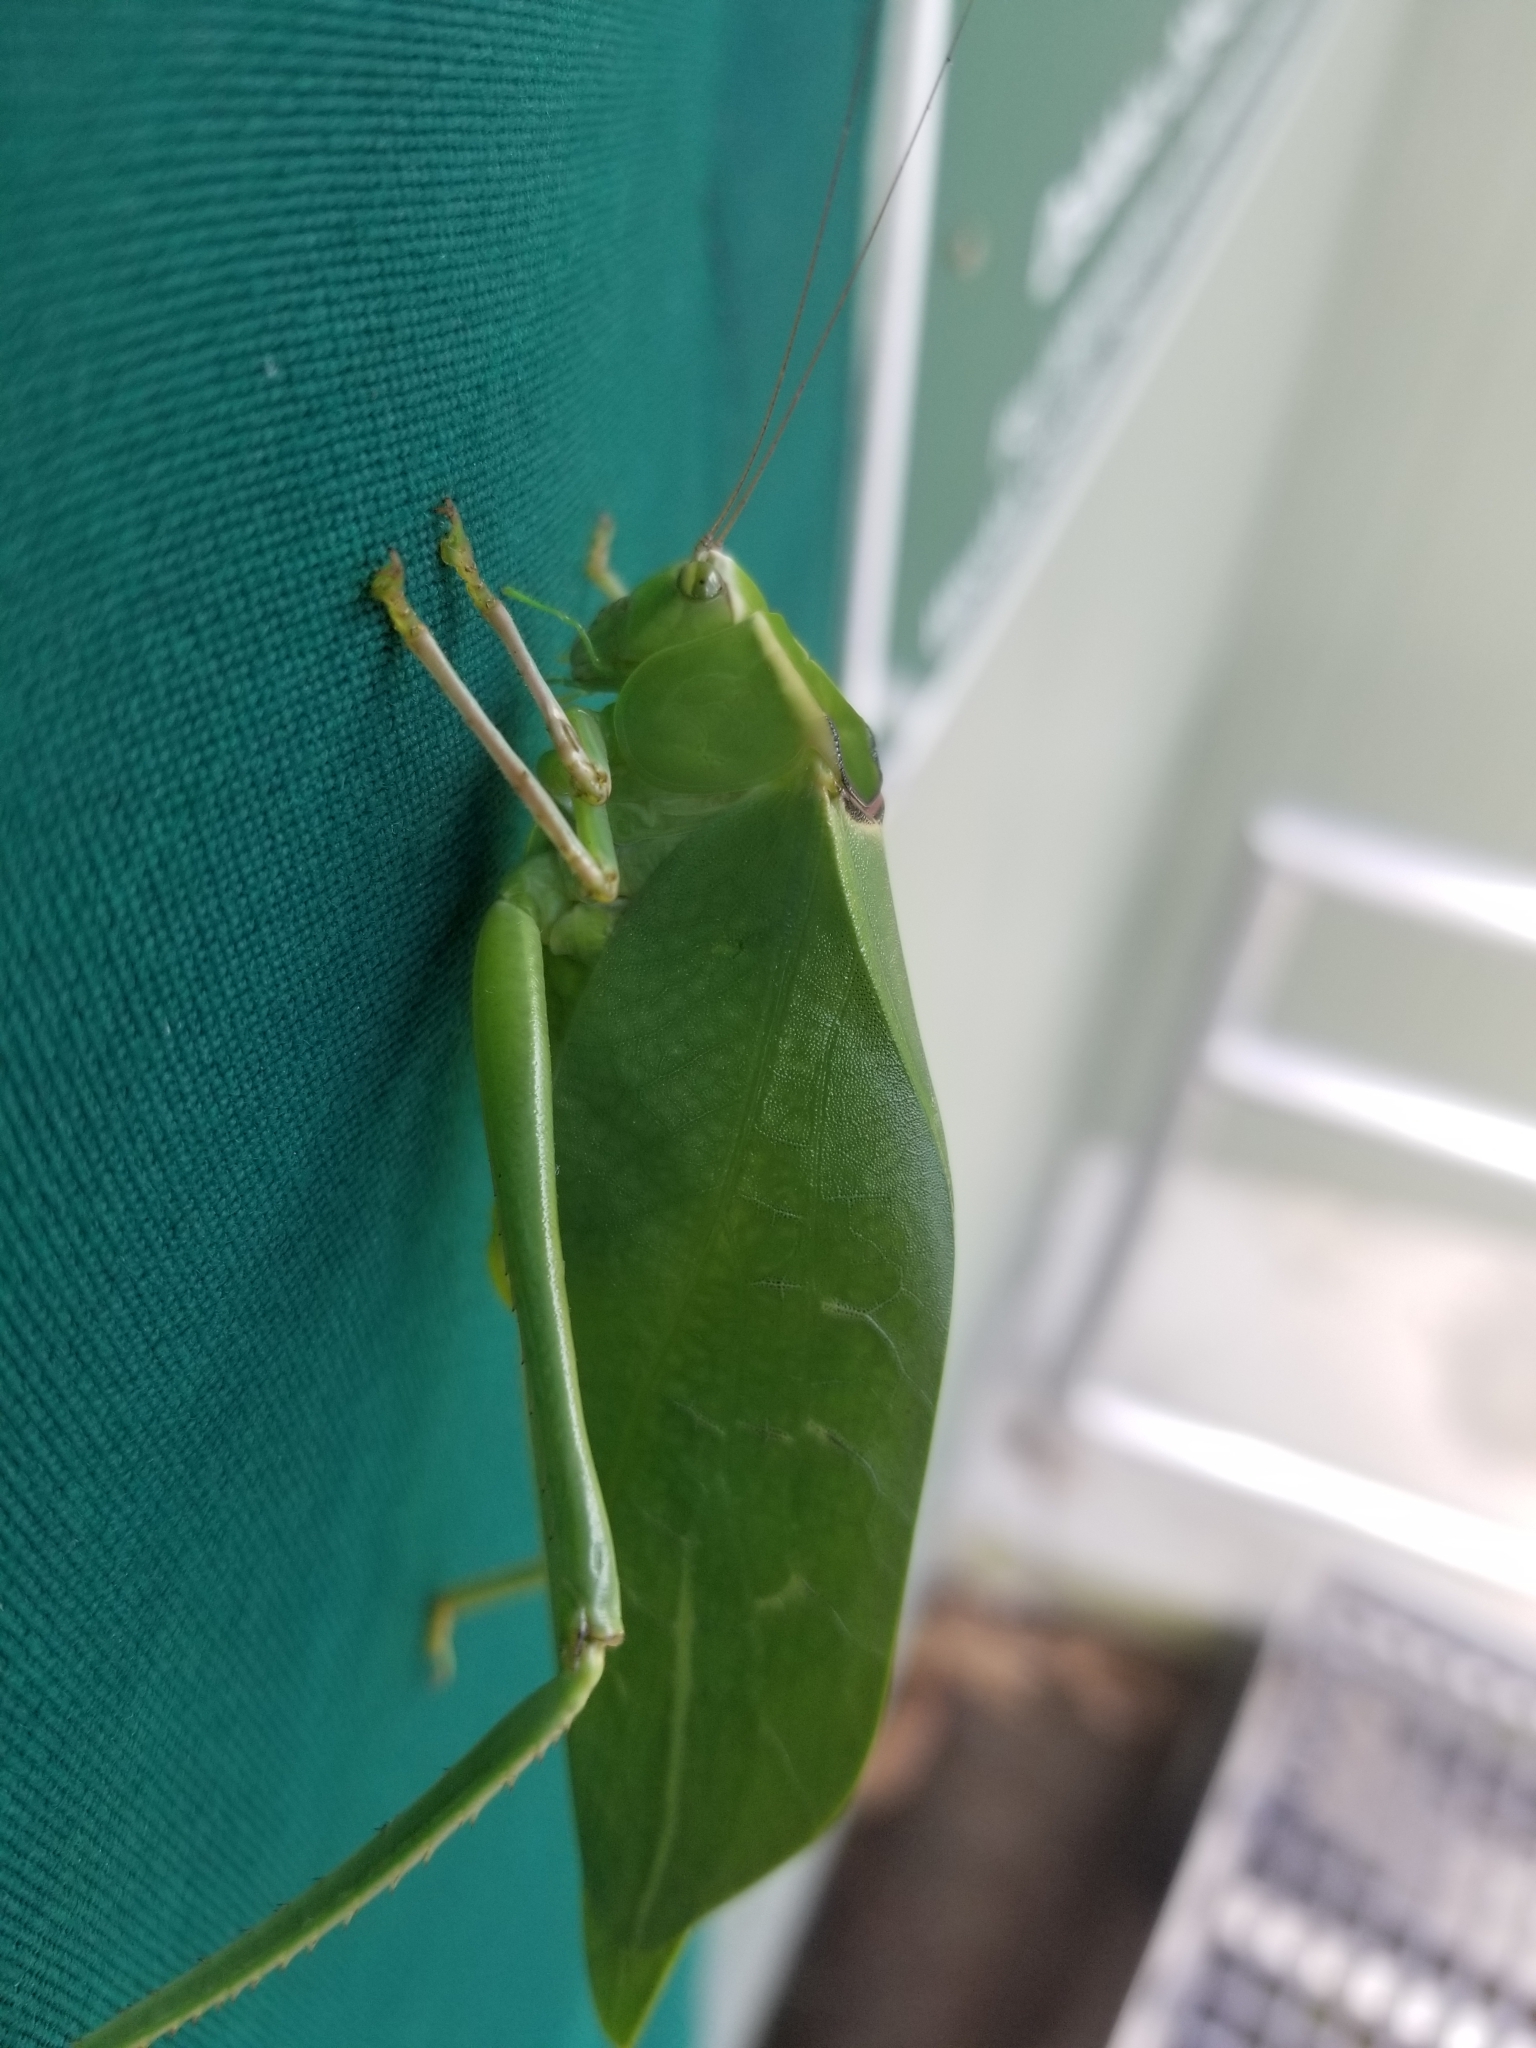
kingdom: Animalia
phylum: Arthropoda
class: Insecta
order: Orthoptera
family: Tettigoniidae
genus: Stilpnochlora
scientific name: Stilpnochlora couloniana
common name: Giant katydid
